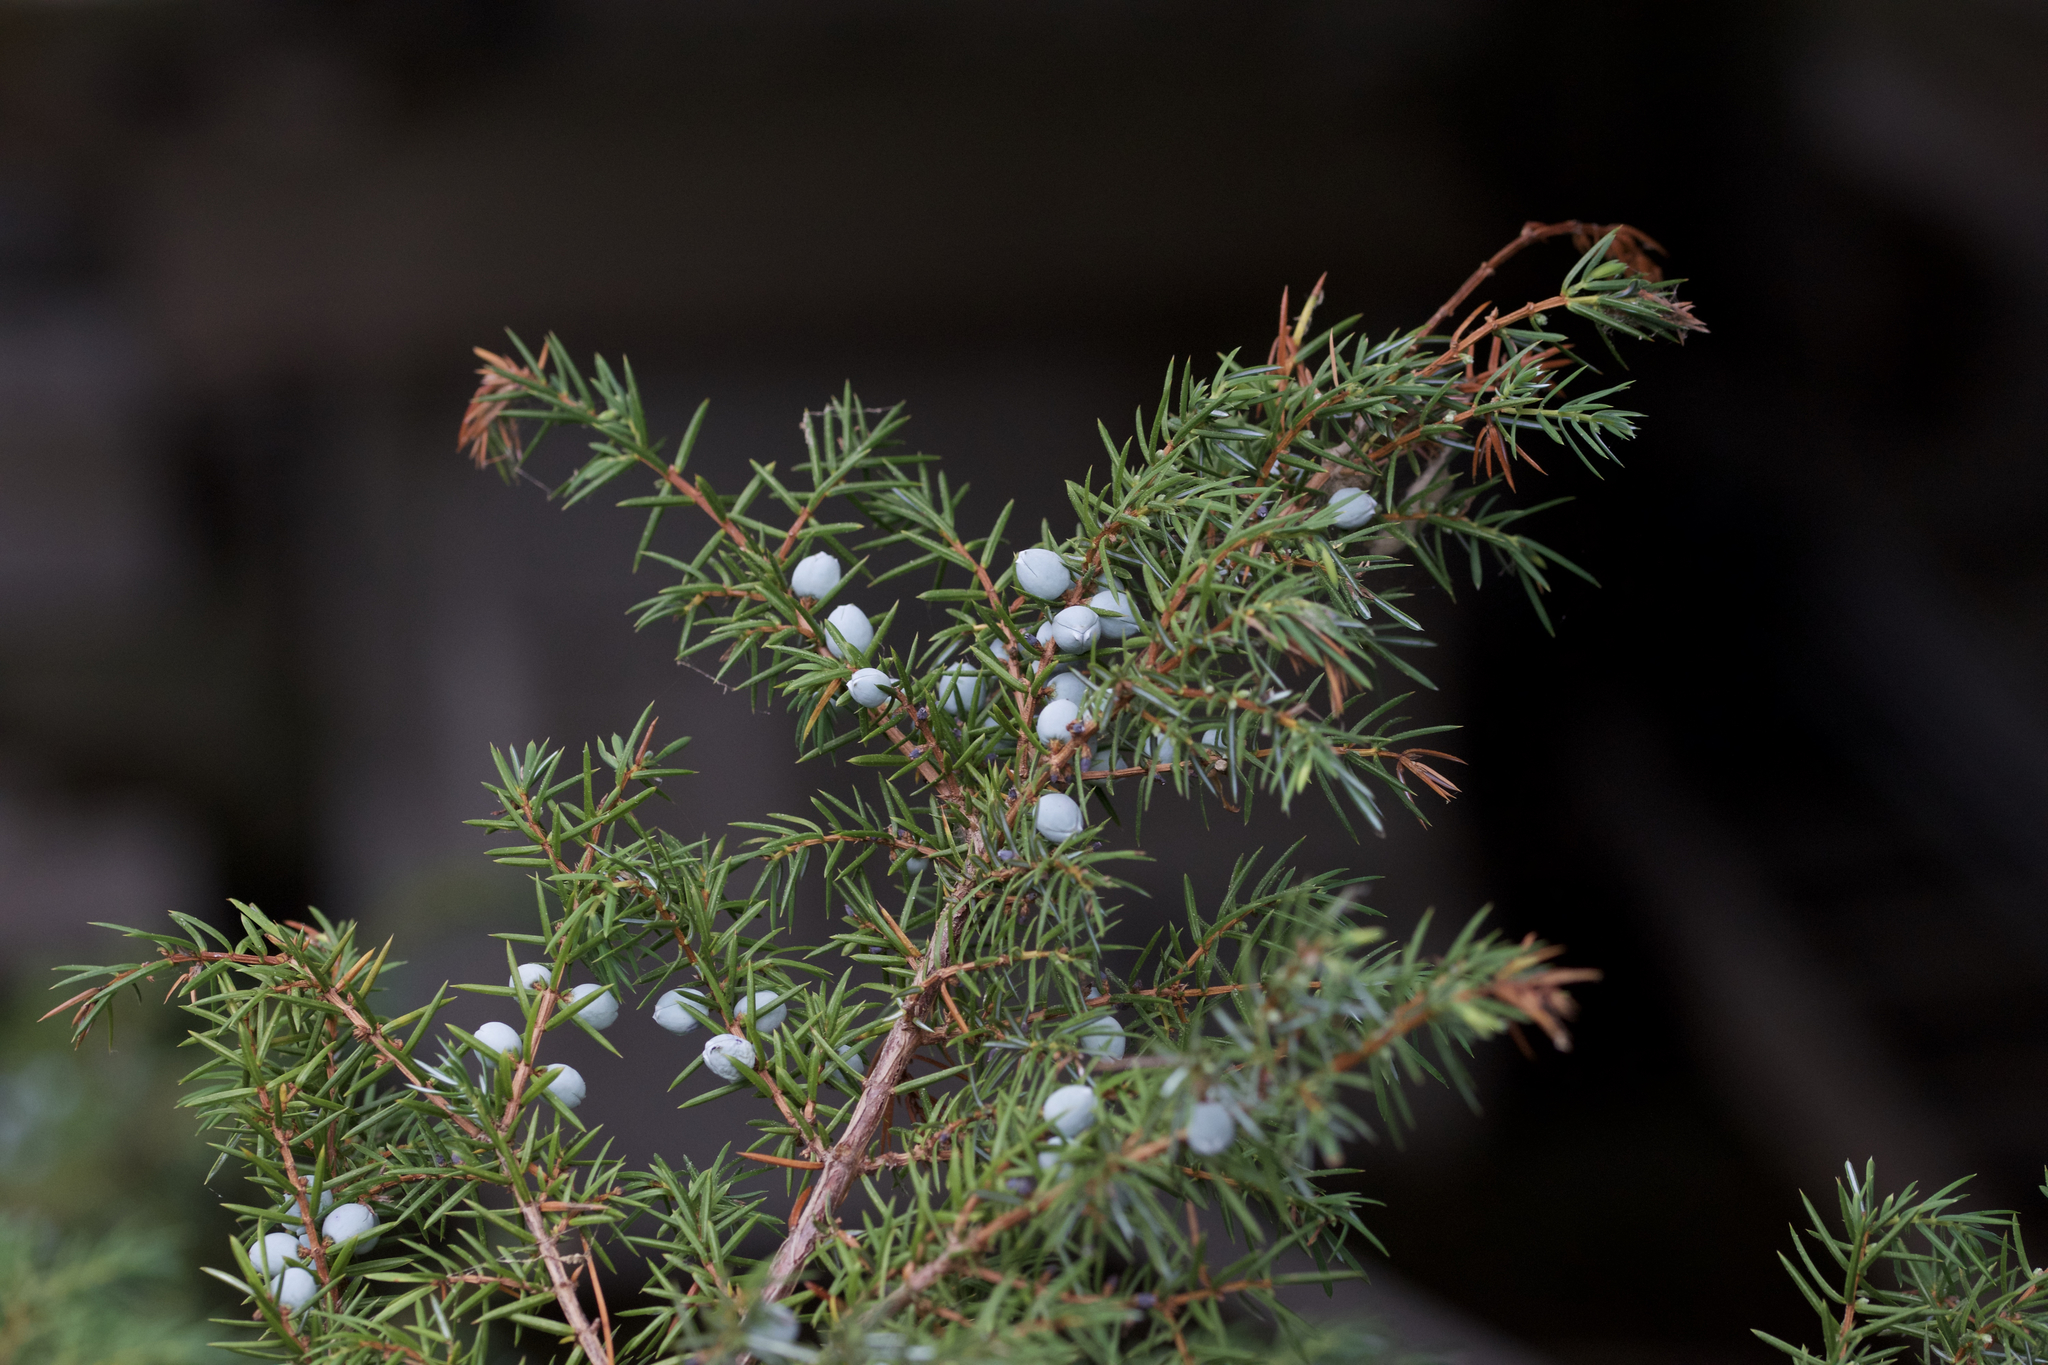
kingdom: Plantae
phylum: Tracheophyta
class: Pinopsida
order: Pinales
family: Cupressaceae
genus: Juniperus
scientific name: Juniperus communis
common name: Common juniper
